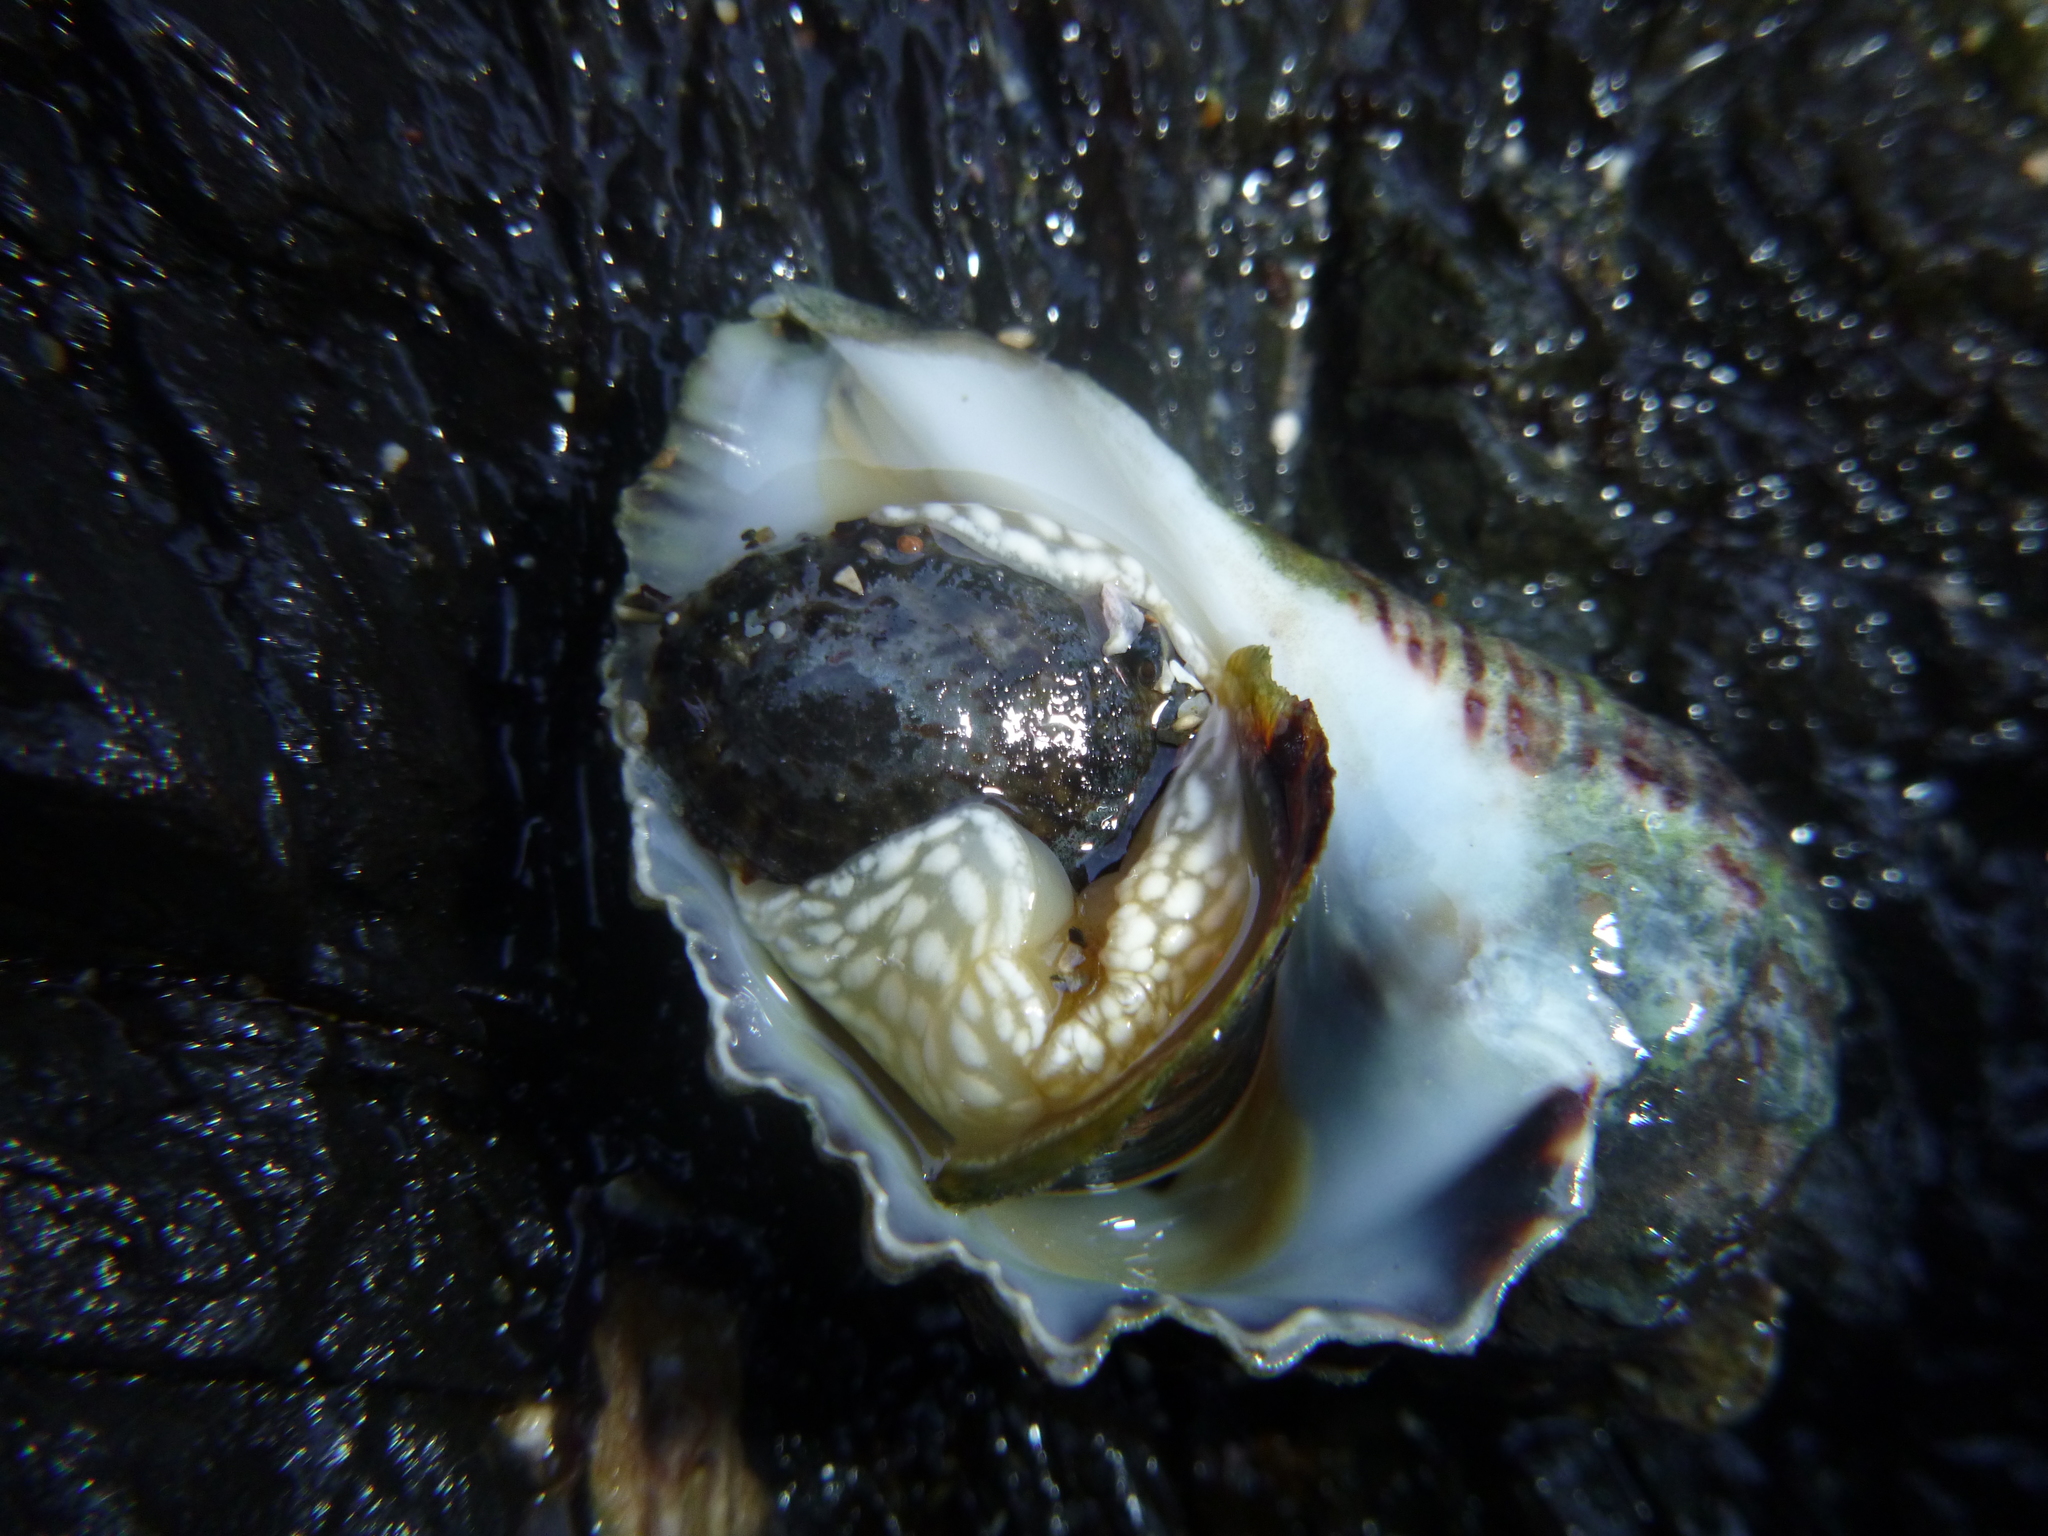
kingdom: Animalia
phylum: Mollusca
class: Gastropoda
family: Nacellidae
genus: Cellana
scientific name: Cellana radians
